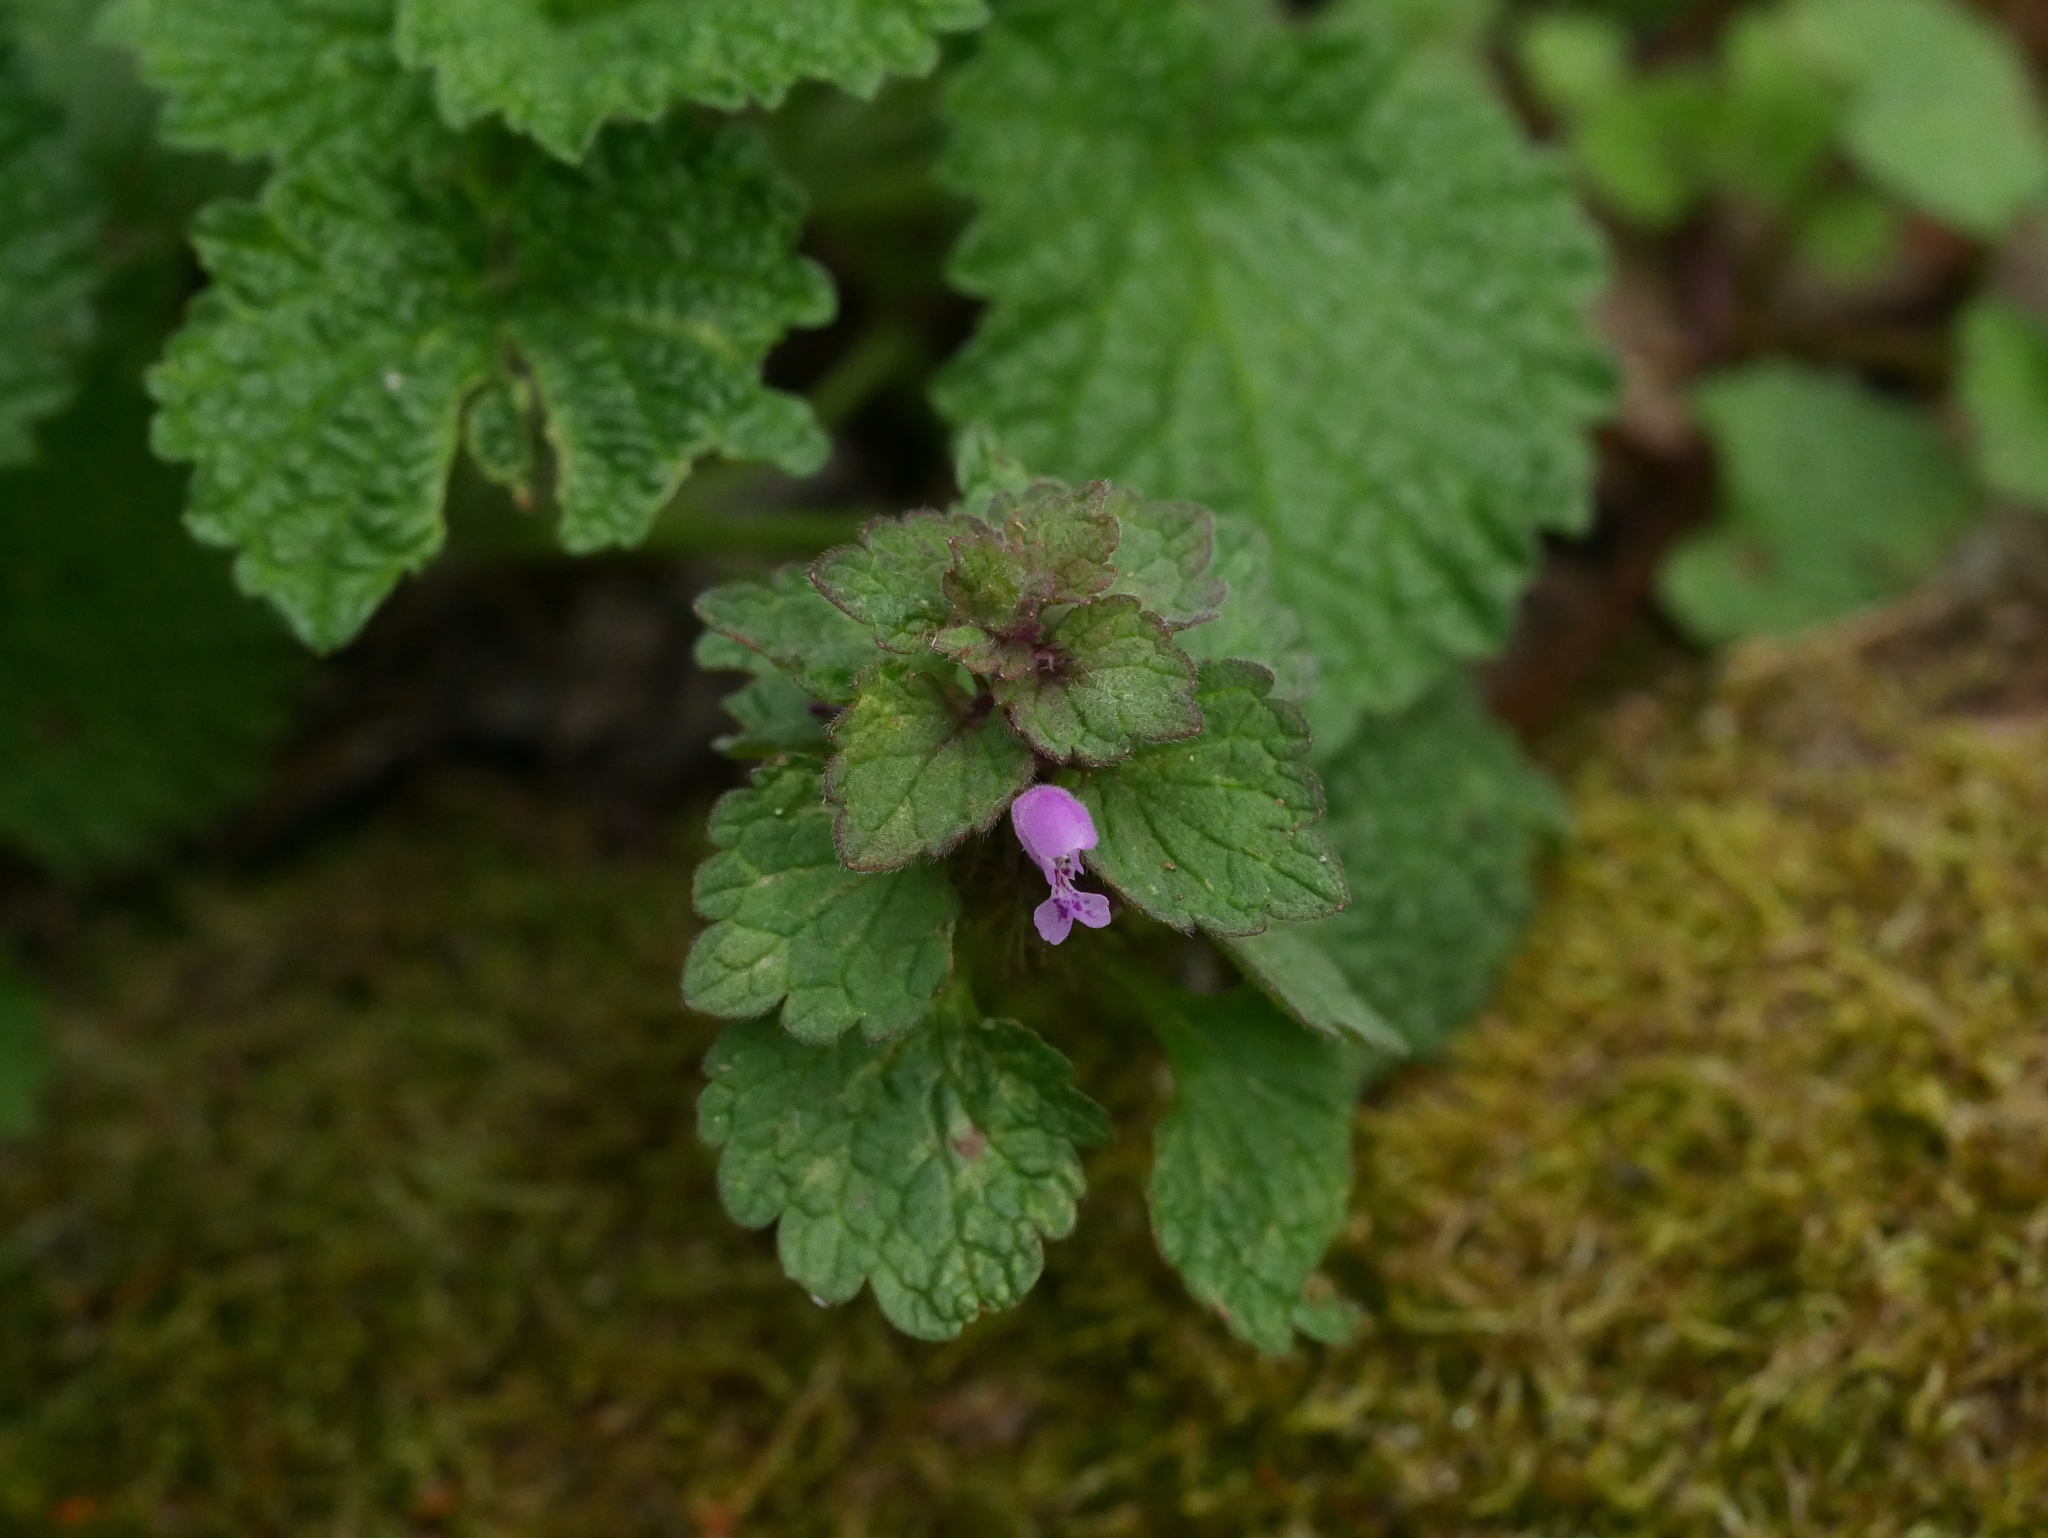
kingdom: Plantae
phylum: Tracheophyta
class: Magnoliopsida
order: Lamiales
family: Lamiaceae
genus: Lamium
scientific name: Lamium purpureum
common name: Red dead-nettle
